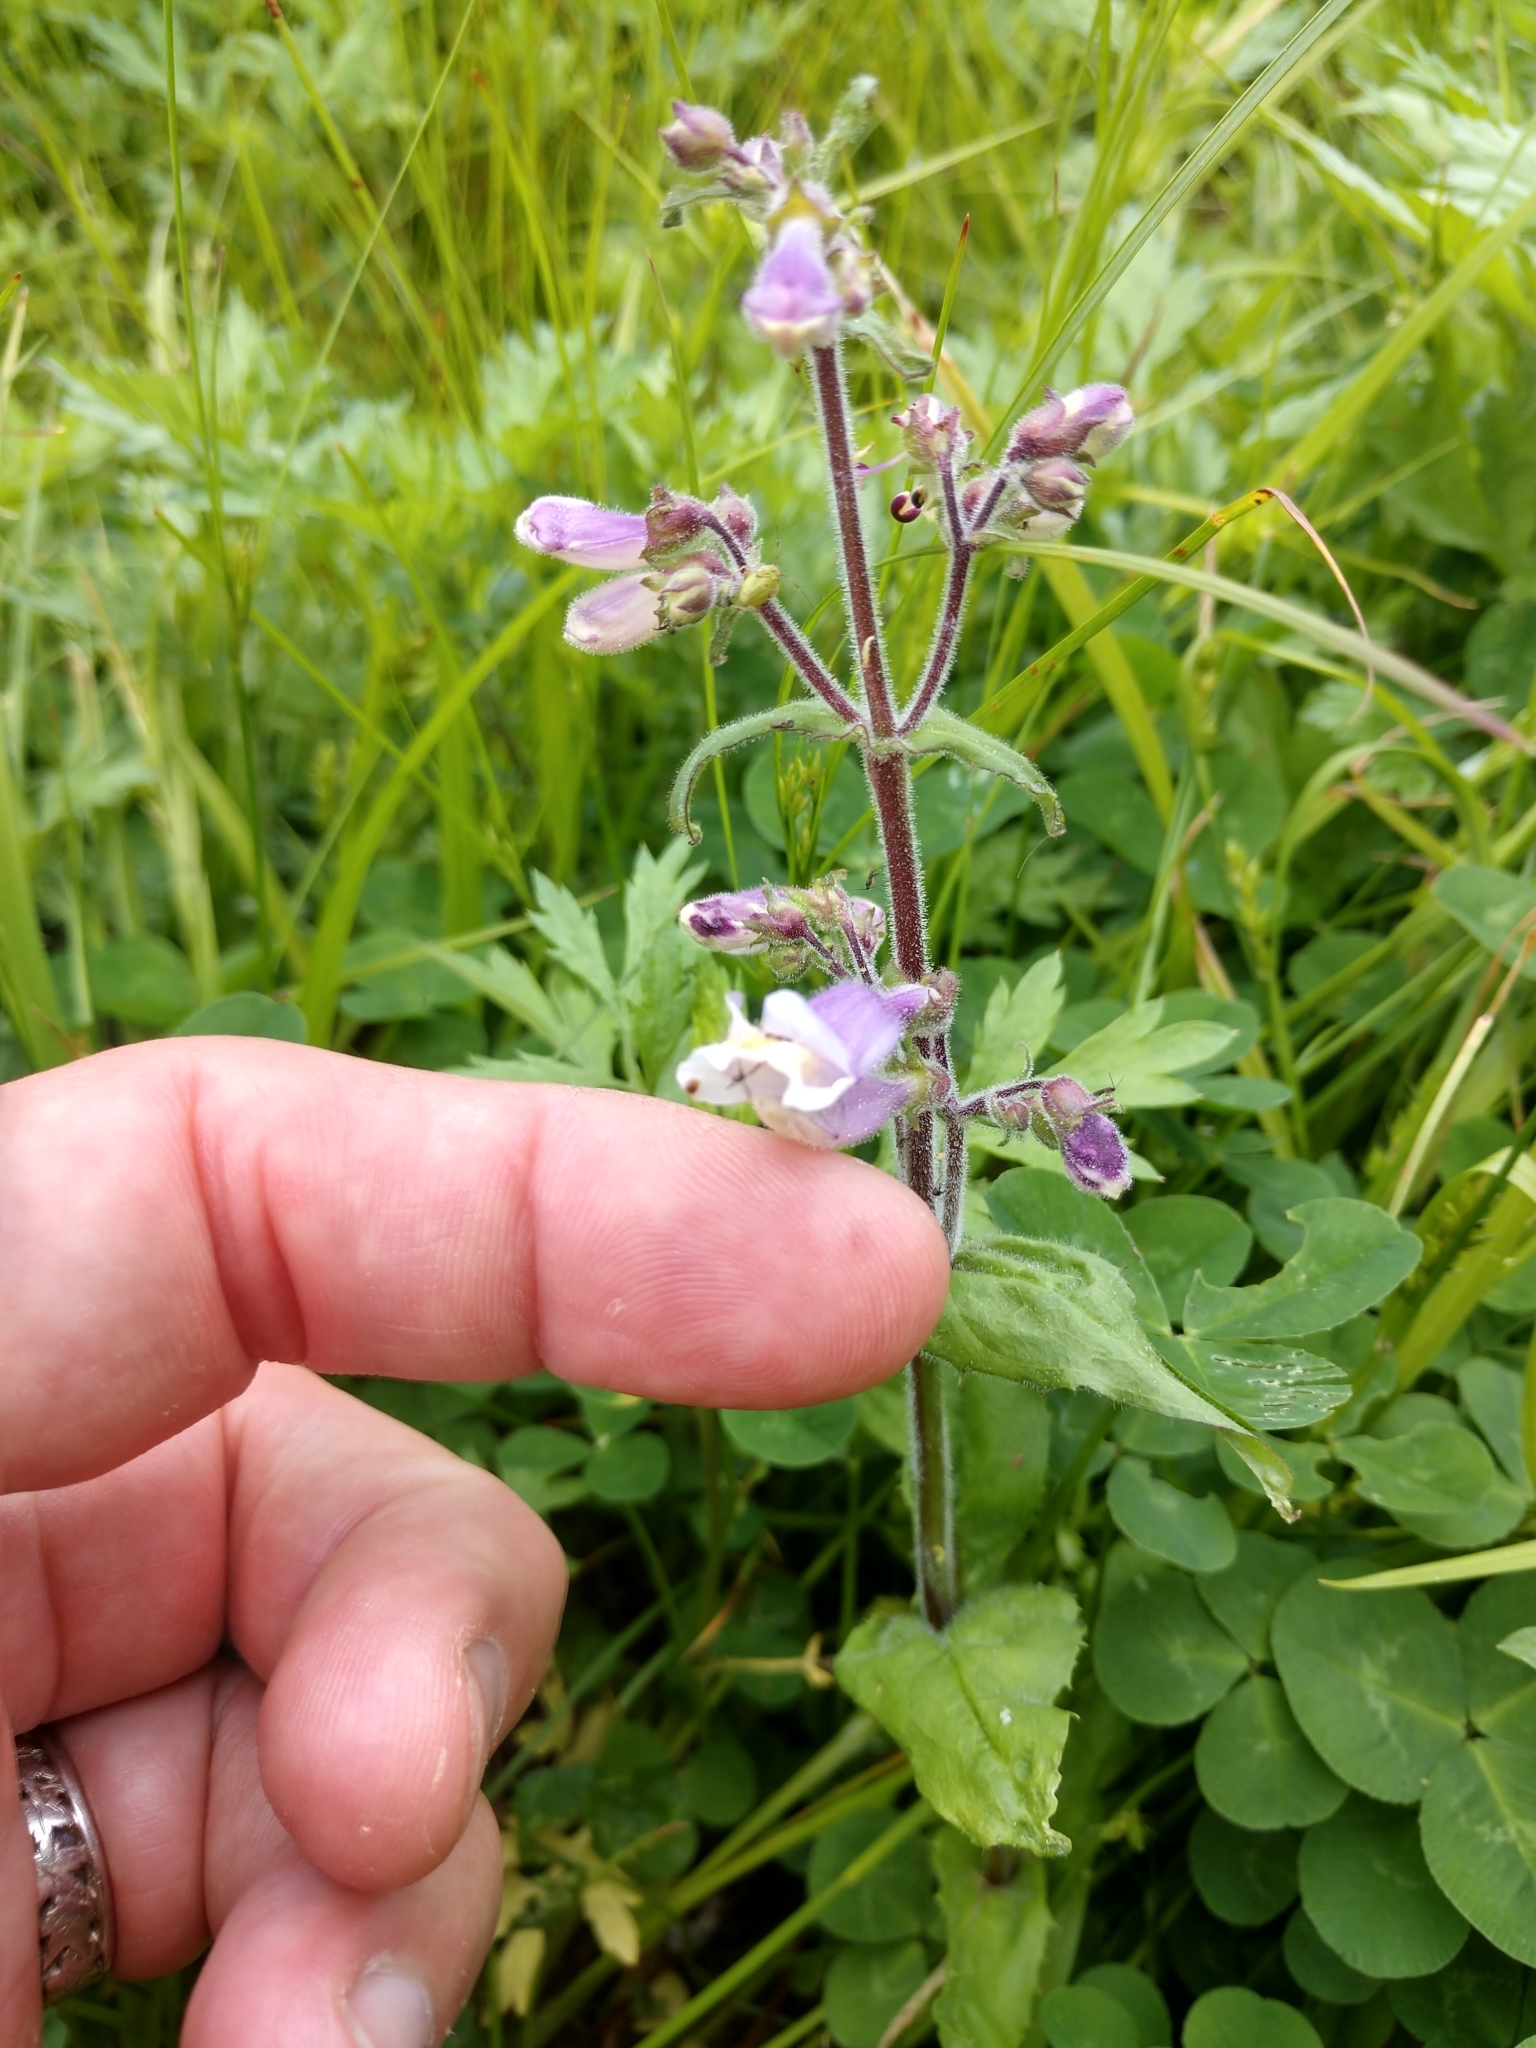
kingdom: Plantae
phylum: Tracheophyta
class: Magnoliopsida
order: Lamiales
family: Plantaginaceae
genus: Penstemon
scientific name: Penstemon hirsutus
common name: Hairy beardtongue
